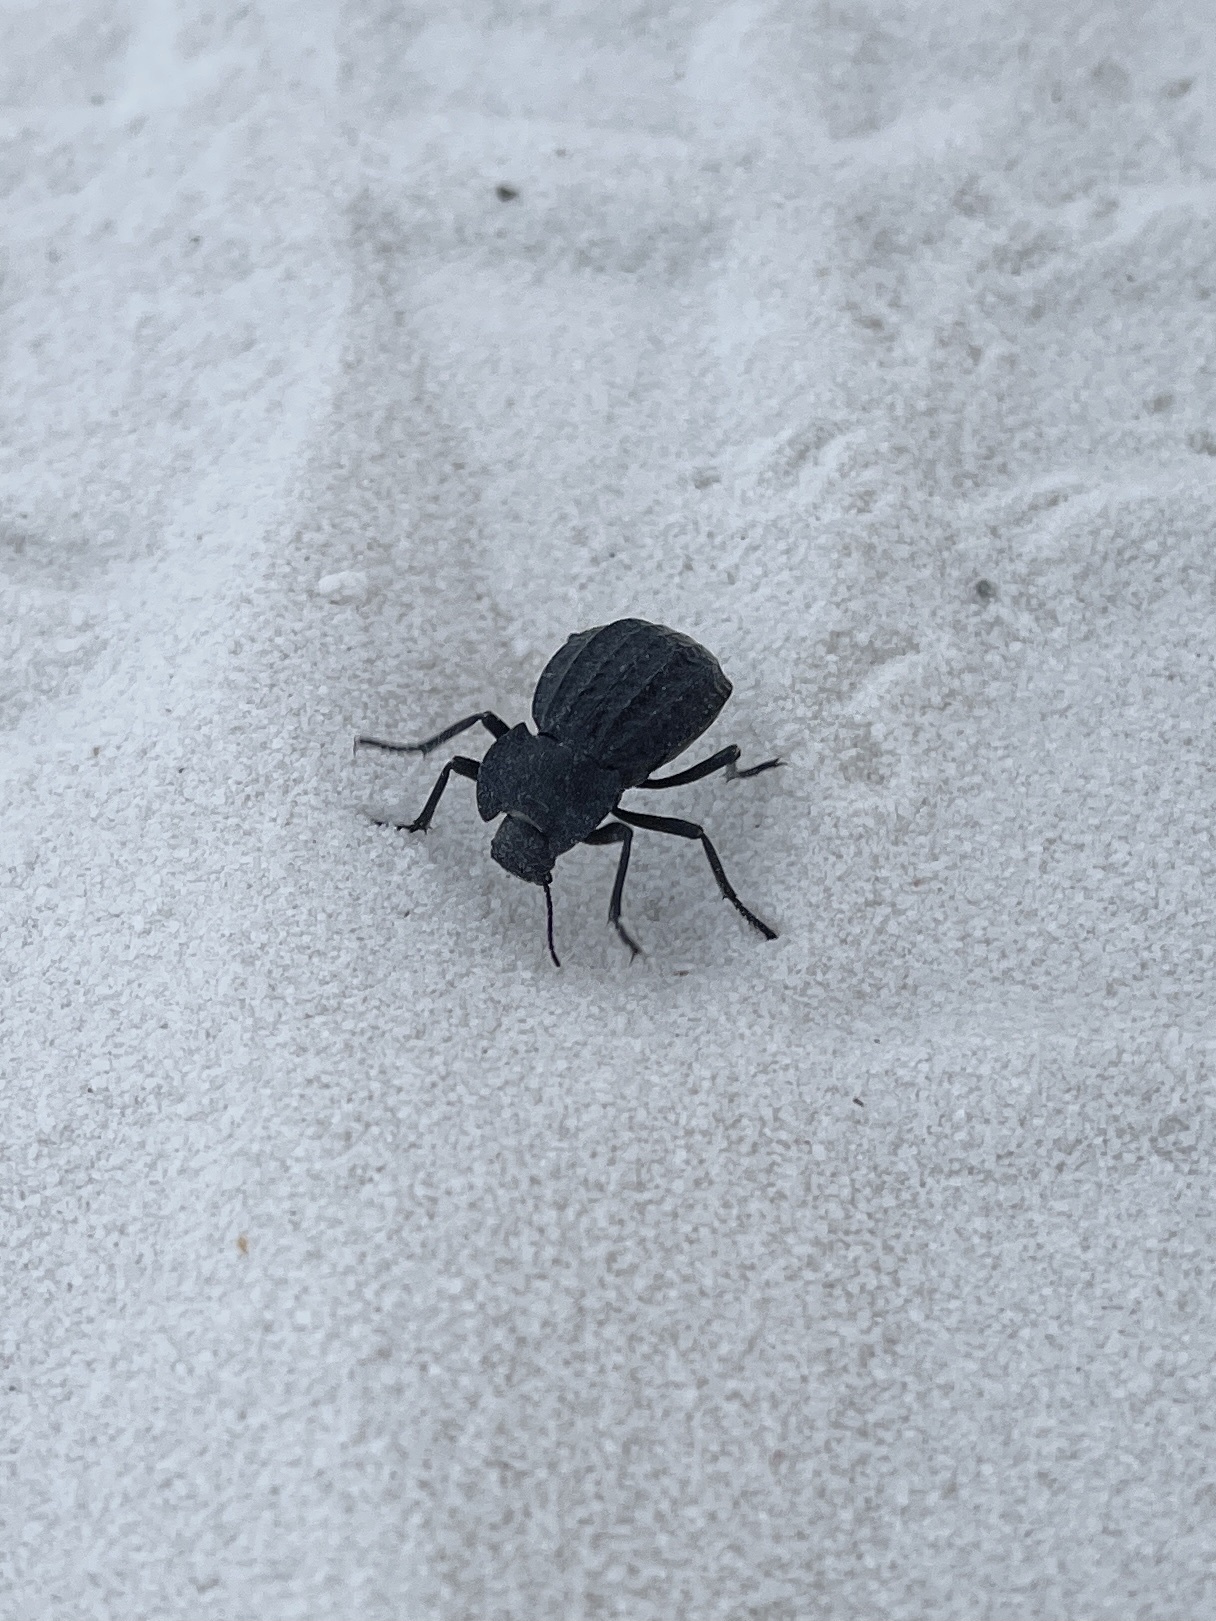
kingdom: Animalia
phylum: Arthropoda
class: Insecta
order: Coleoptera
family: Tenebrionidae
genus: Philolithus
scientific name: Philolithus
